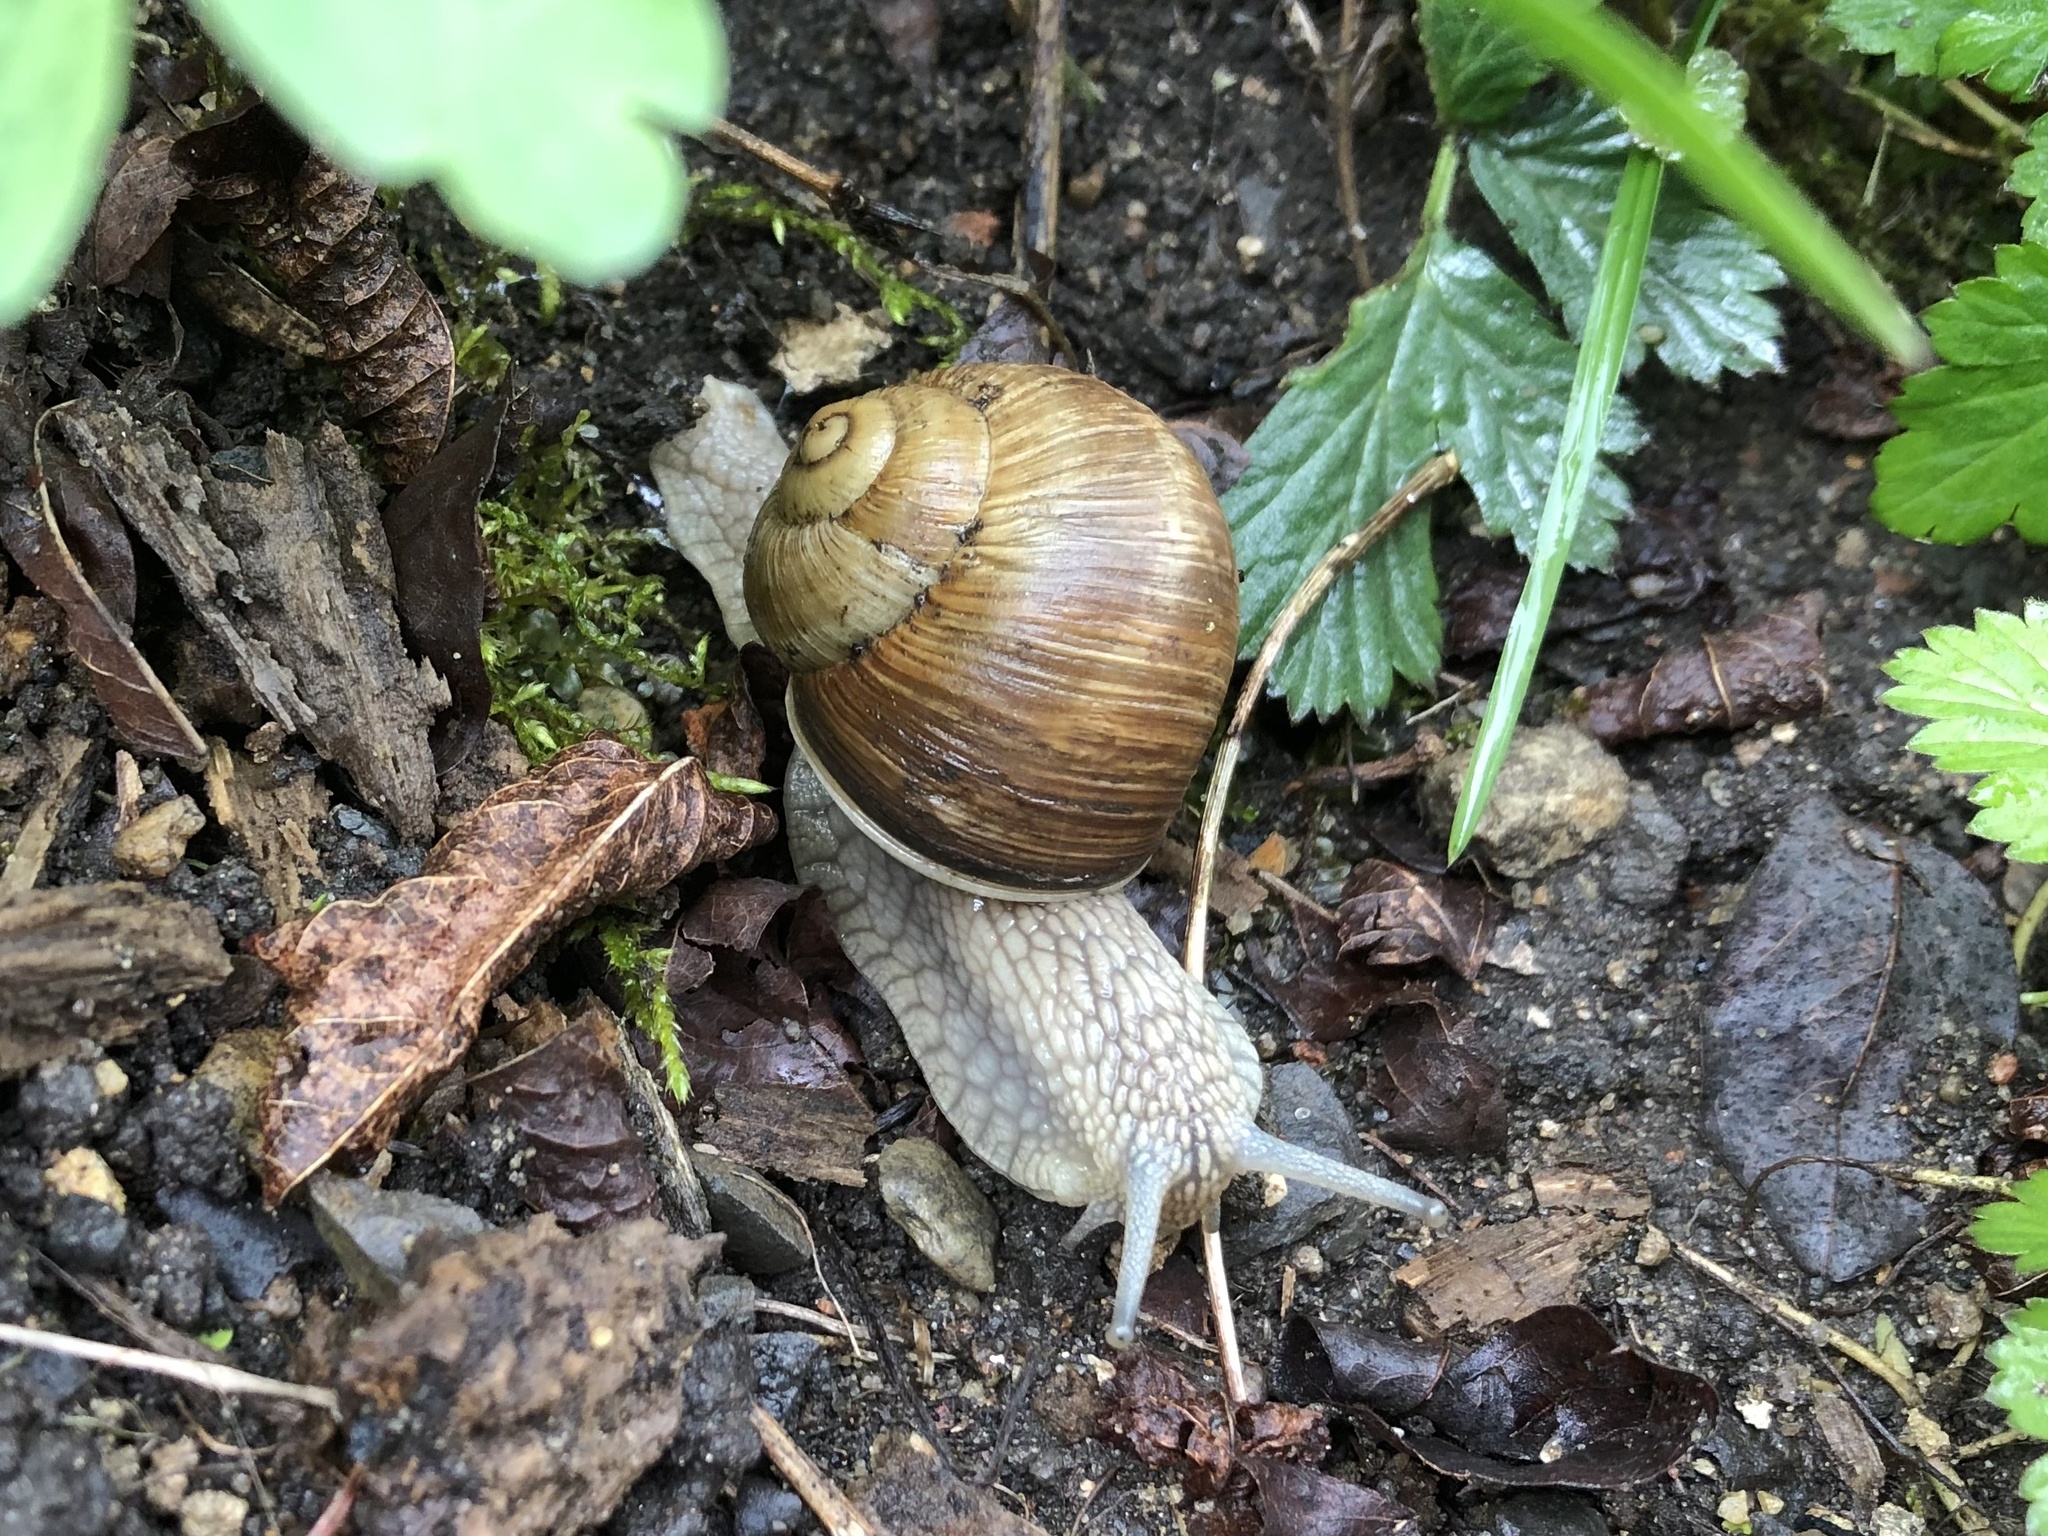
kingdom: Animalia
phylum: Mollusca
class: Gastropoda
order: Stylommatophora
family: Helicidae
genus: Helix
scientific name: Helix pomatia
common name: Roman snail
